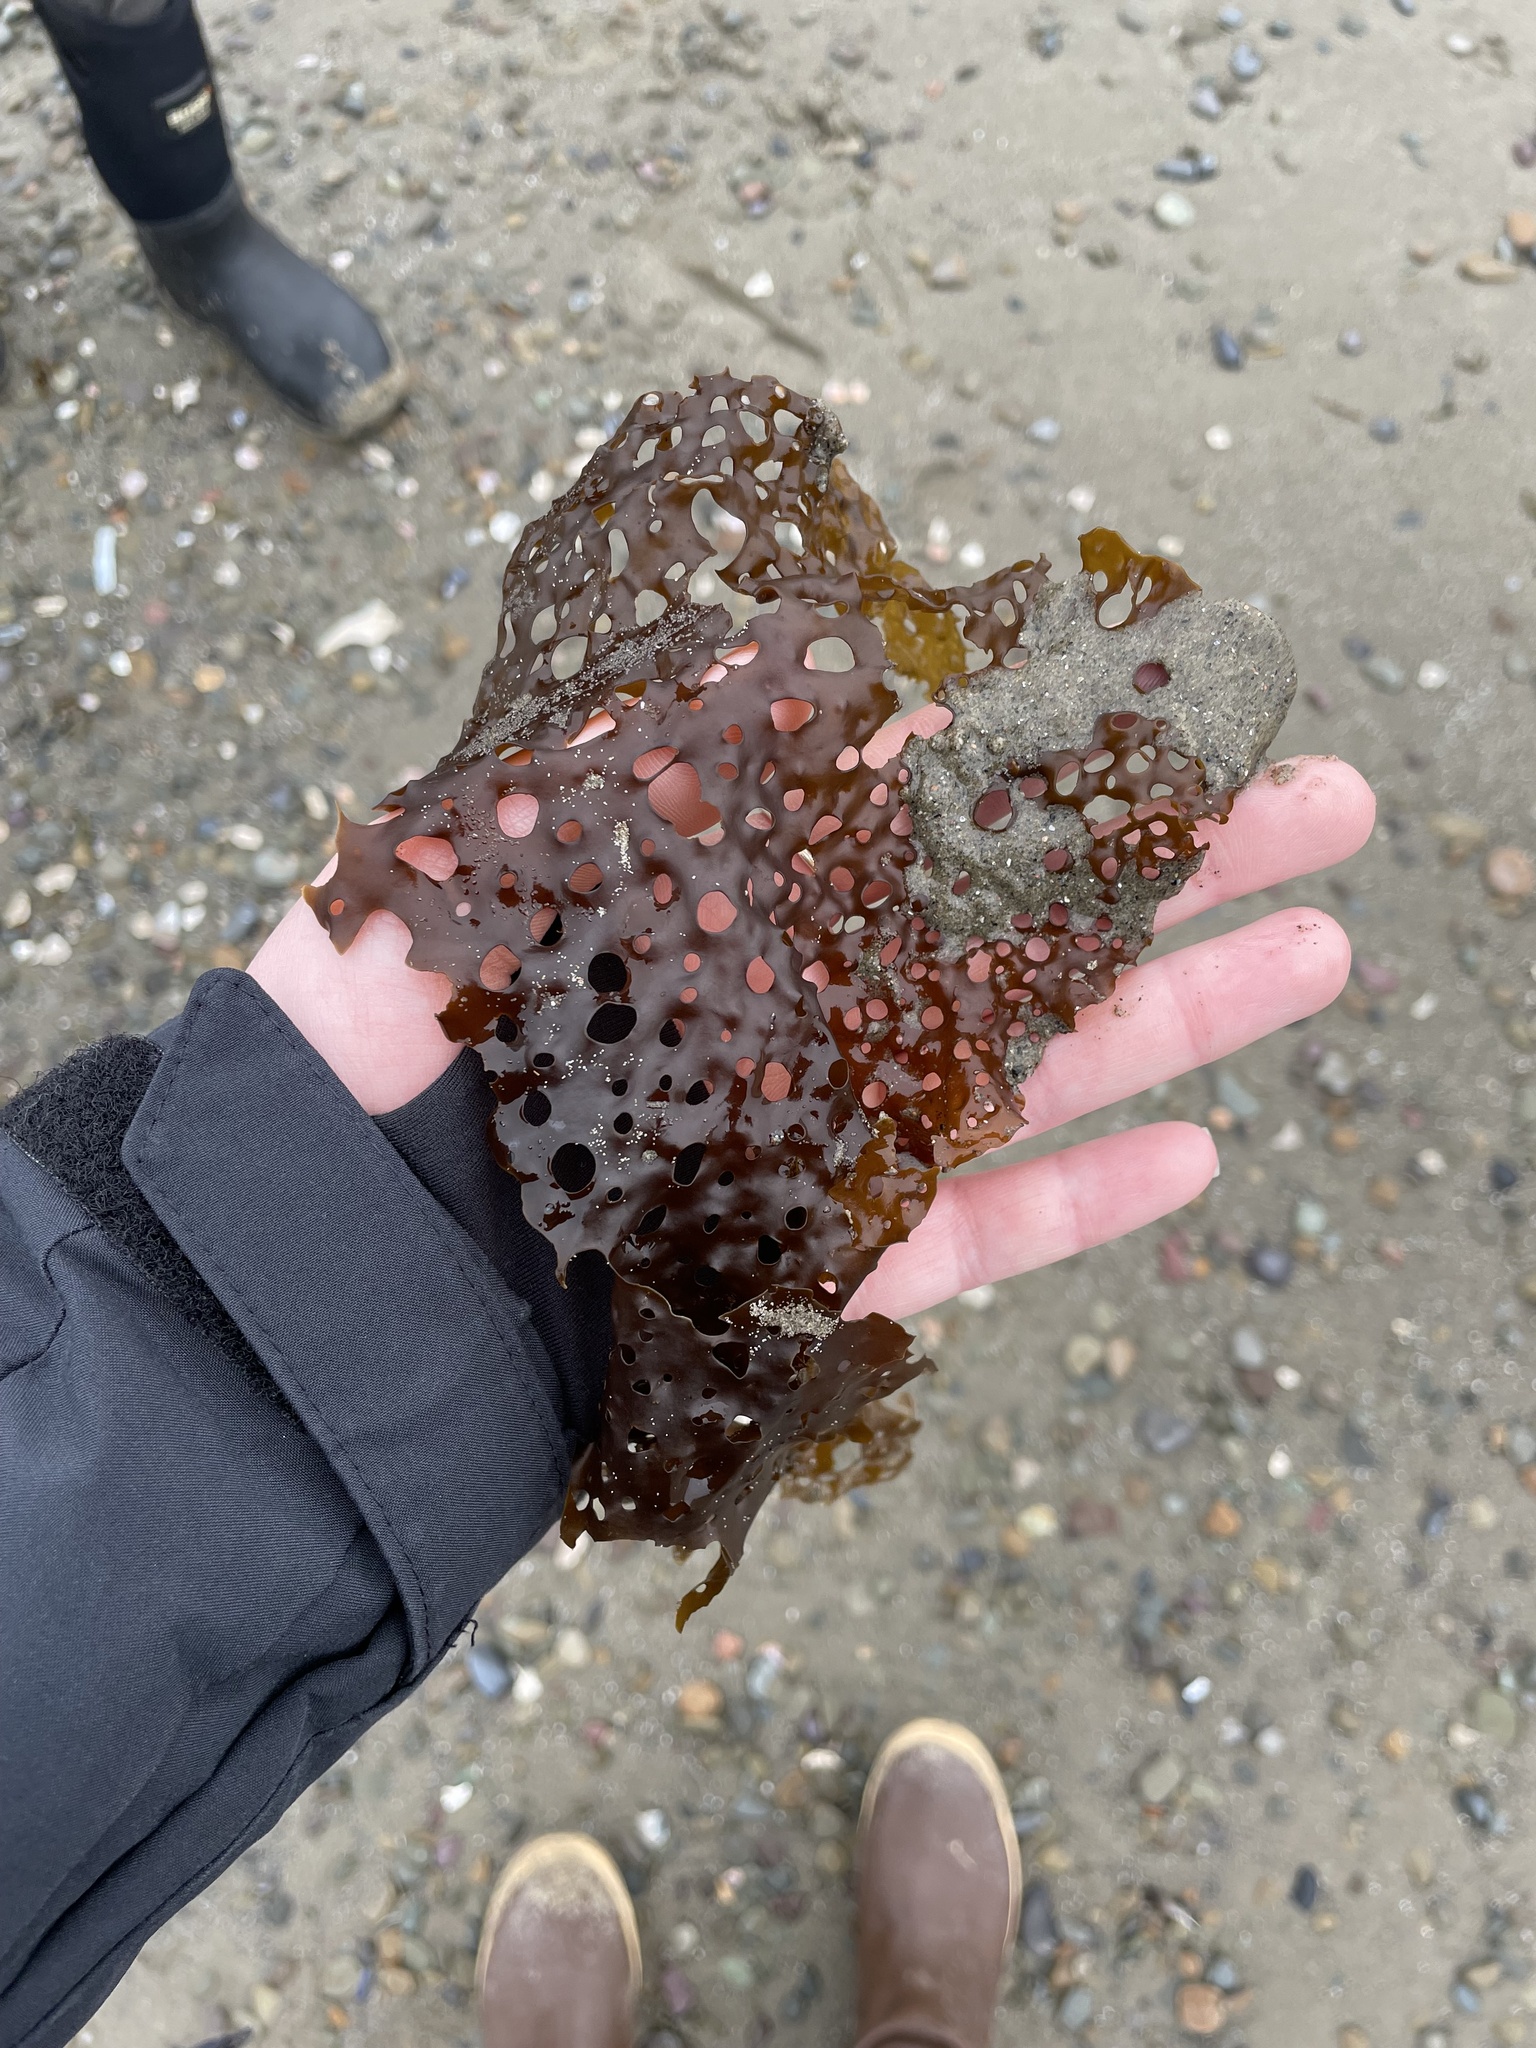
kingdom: Chromista
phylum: Ochrophyta
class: Phaeophyceae
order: Laminariales
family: Costariaceae
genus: Agarum
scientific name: Agarum clathratum
